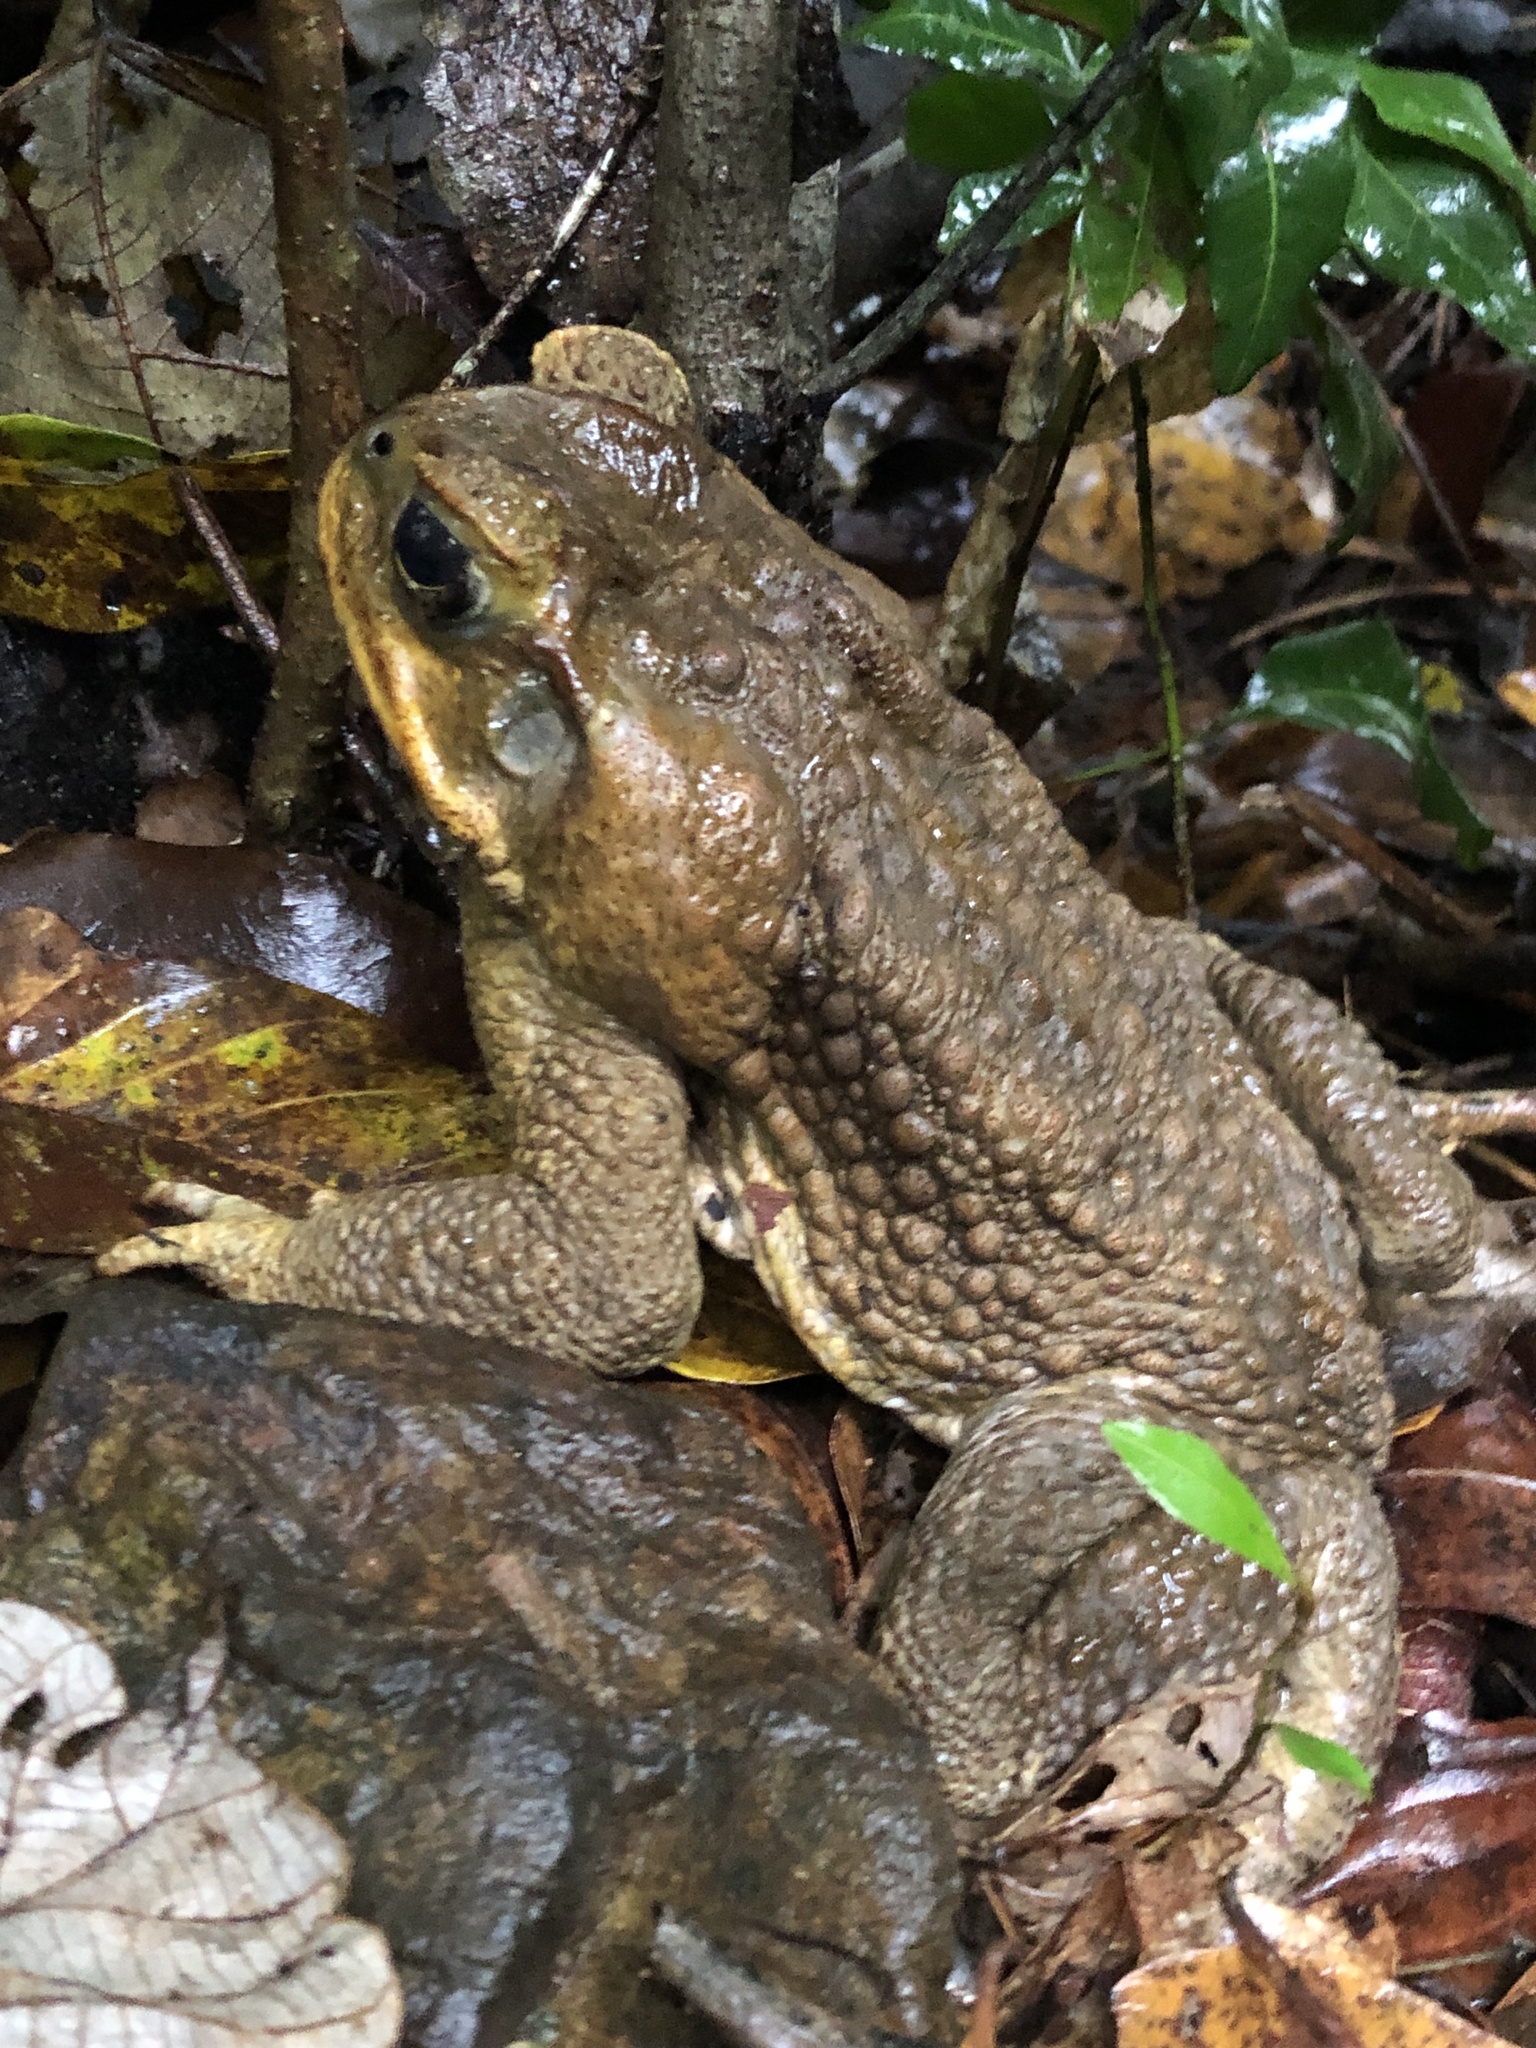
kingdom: Animalia
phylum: Chordata
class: Amphibia
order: Anura
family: Bufonidae
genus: Rhinella
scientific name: Rhinella marina
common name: Cane toad
